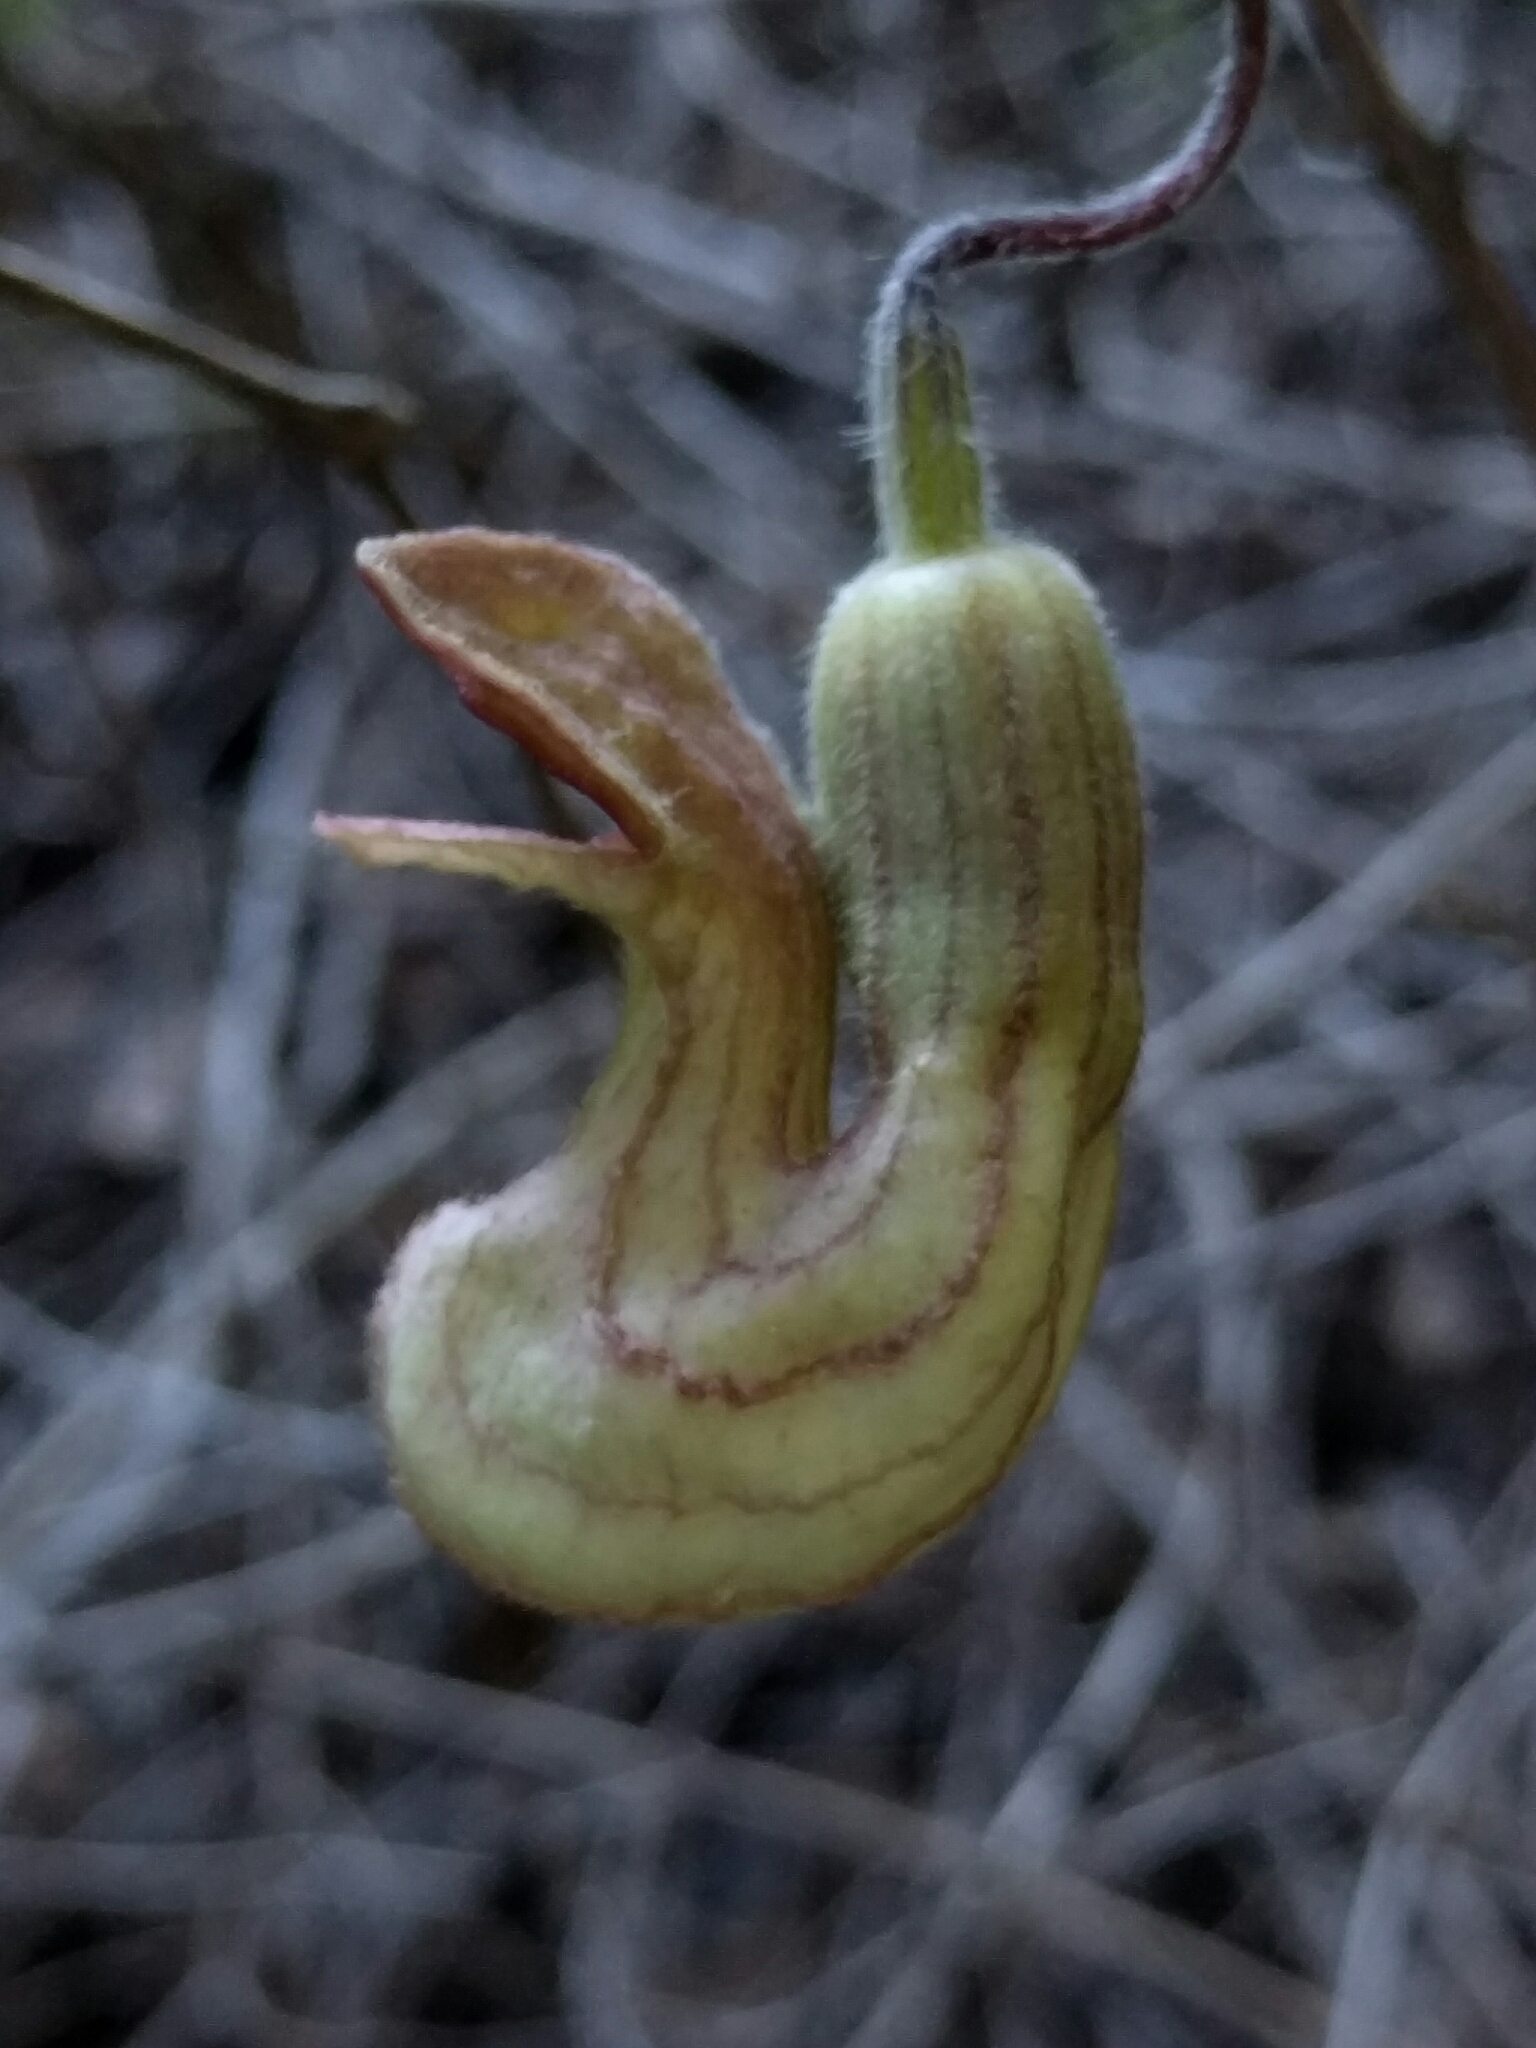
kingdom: Plantae
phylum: Tracheophyta
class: Magnoliopsida
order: Piperales
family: Aristolochiaceae
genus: Isotrema
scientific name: Isotrema californicum
